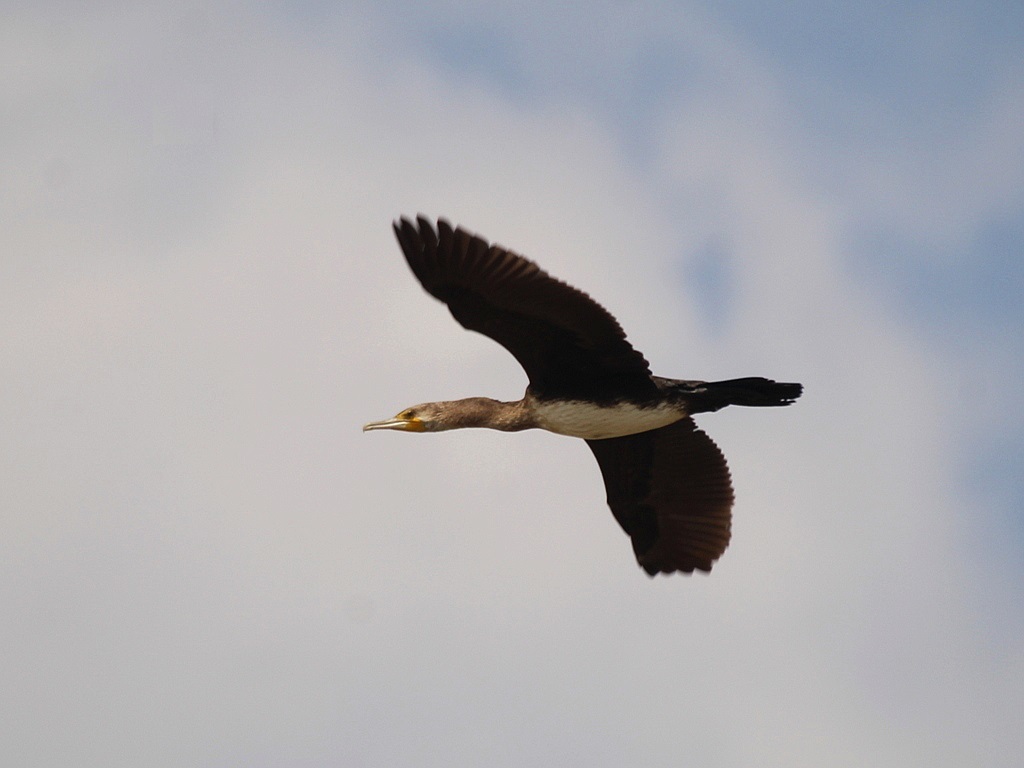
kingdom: Animalia
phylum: Chordata
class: Aves
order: Suliformes
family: Phalacrocoracidae
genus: Phalacrocorax
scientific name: Phalacrocorax carbo
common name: Great cormorant
